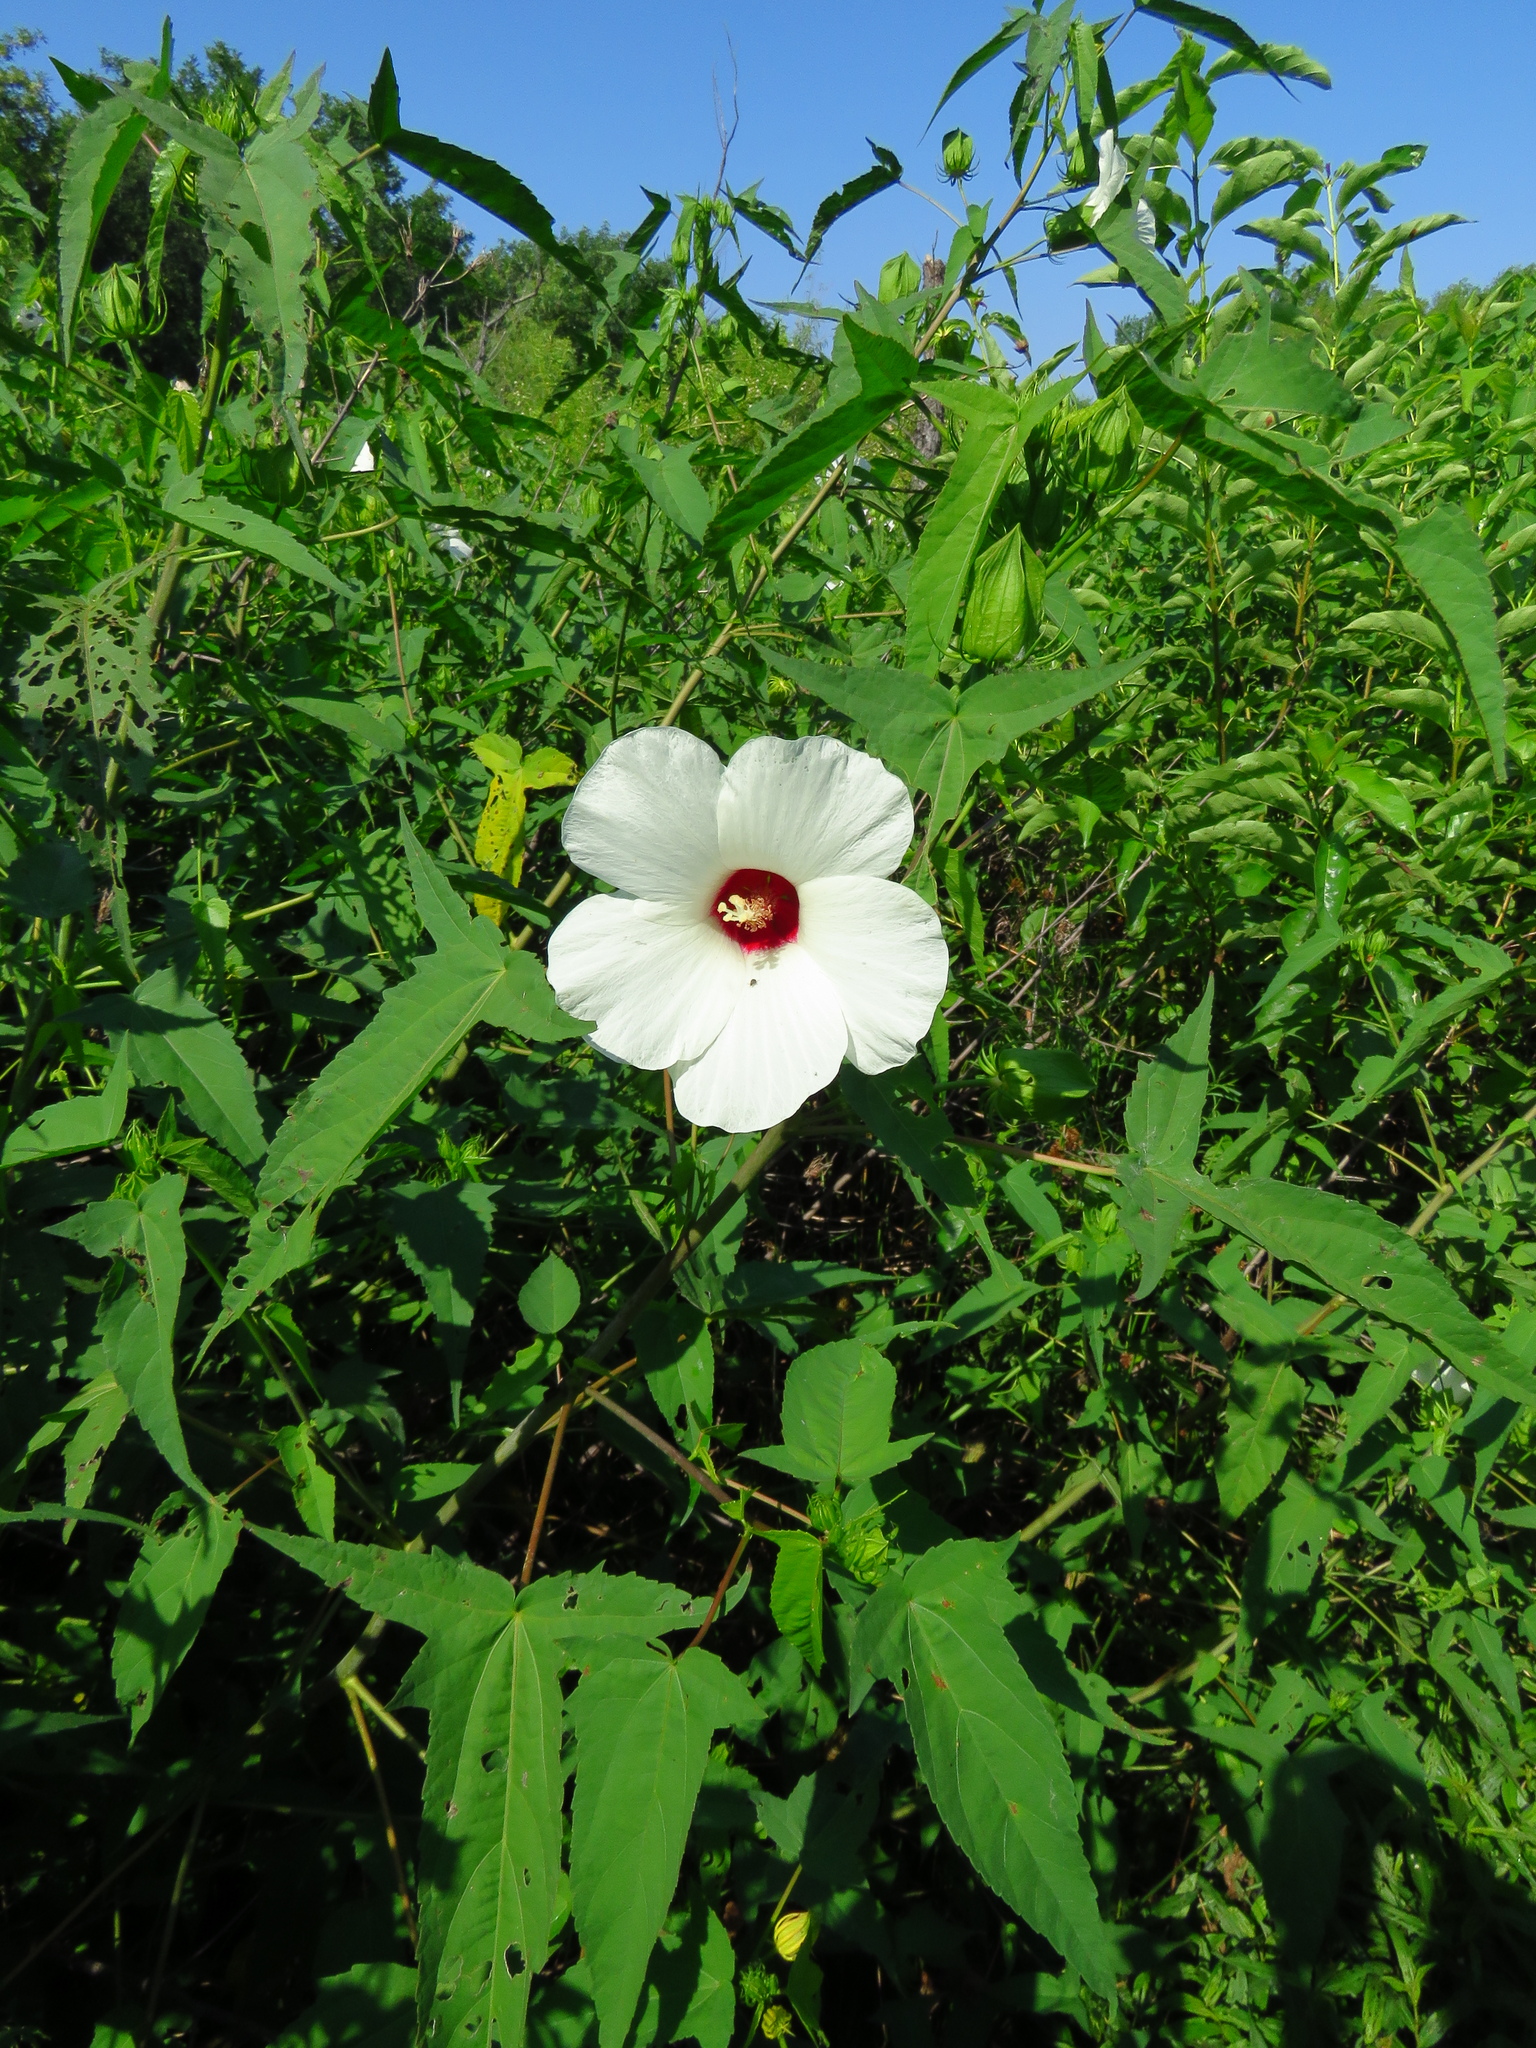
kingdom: Plantae
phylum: Tracheophyta
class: Magnoliopsida
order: Malvales
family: Malvaceae
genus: Hibiscus
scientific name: Hibiscus laevis
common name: Scarlet rose-mallow
